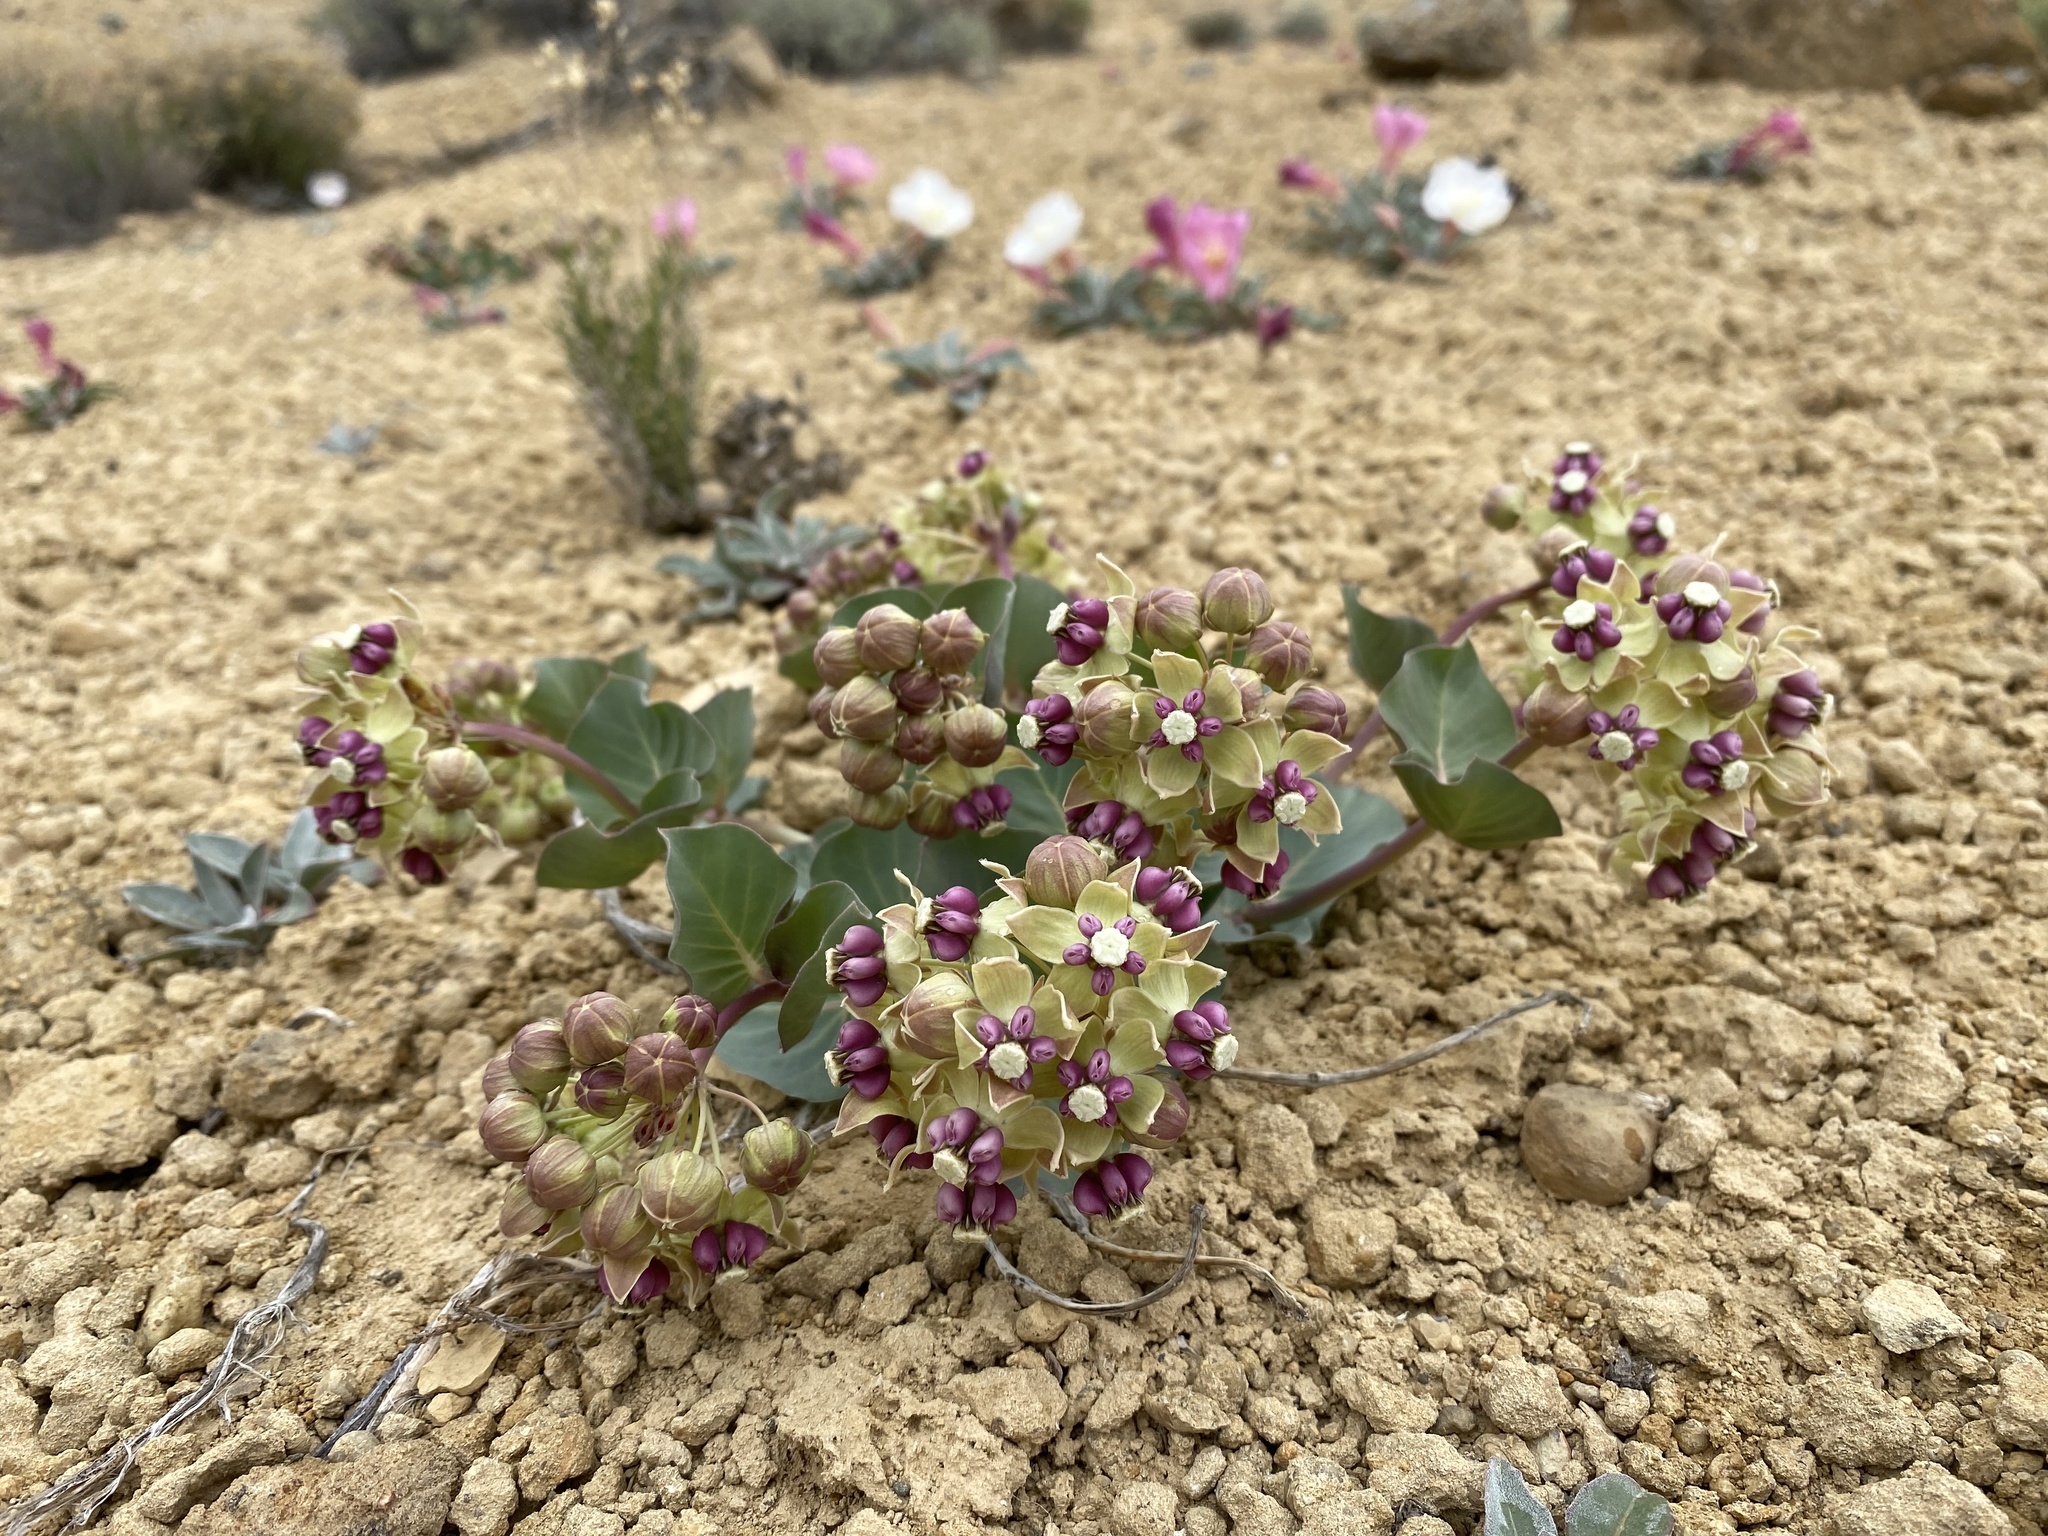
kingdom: Plantae
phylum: Tracheophyta
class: Magnoliopsida
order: Gentianales
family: Apocynaceae
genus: Asclepias
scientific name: Asclepias cryptoceras
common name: Humboldt mountains milkweed
